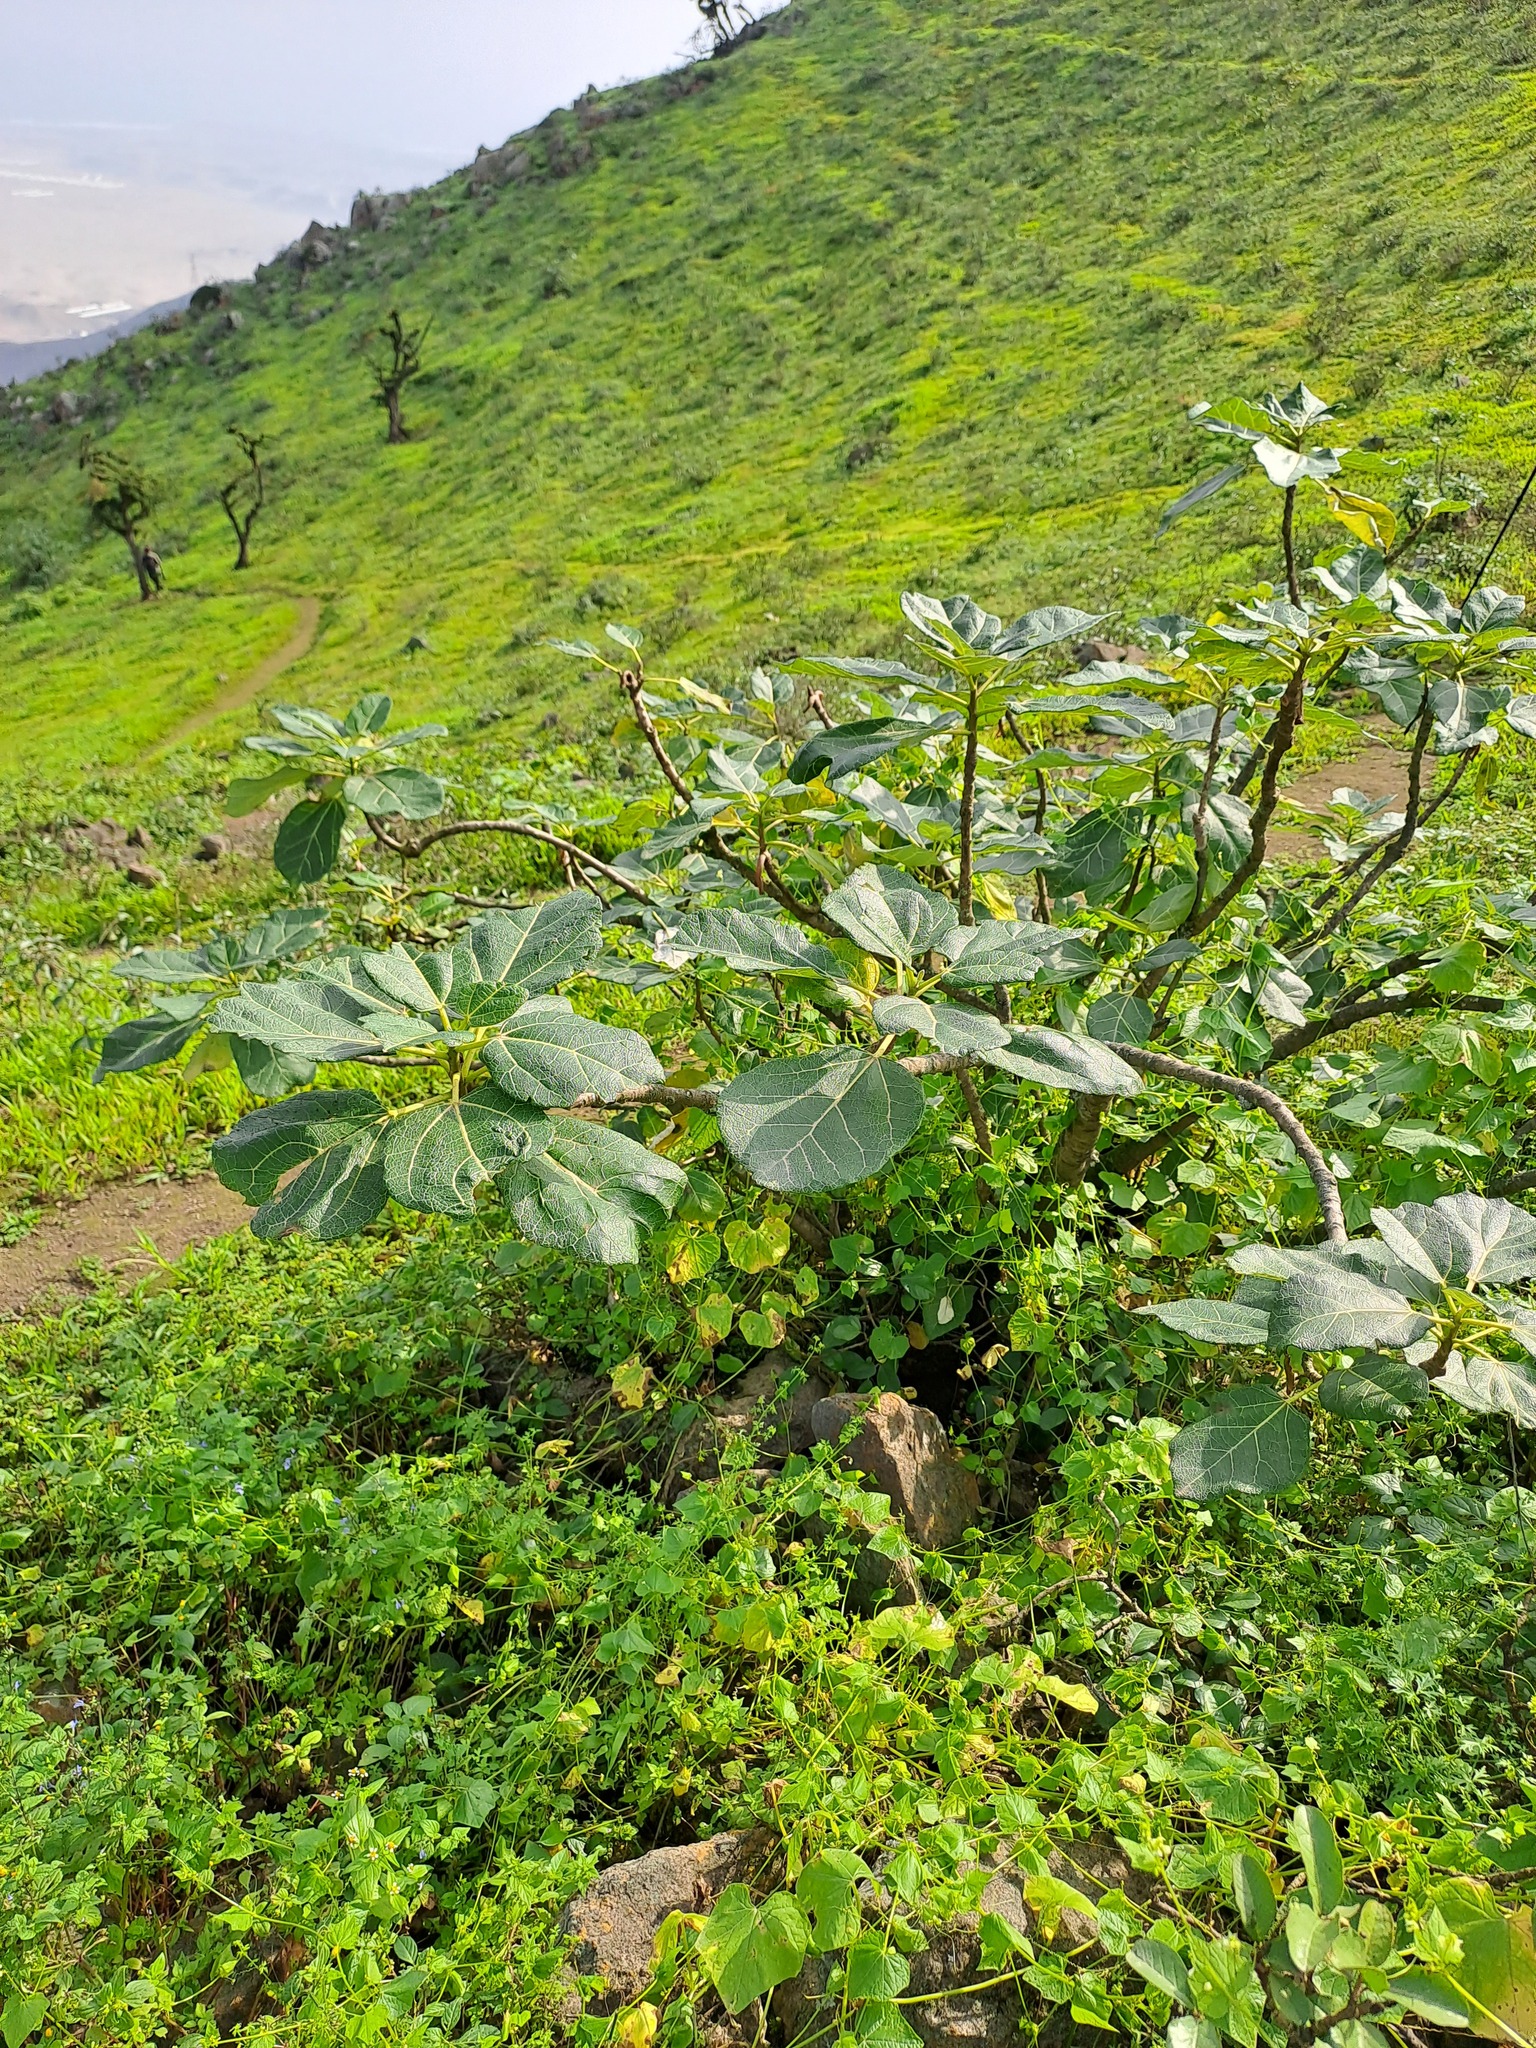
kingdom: Plantae
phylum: Tracheophyta
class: Magnoliopsida
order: Brassicales
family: Caricaceae
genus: Vasconcellea
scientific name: Vasconcellea candicans
